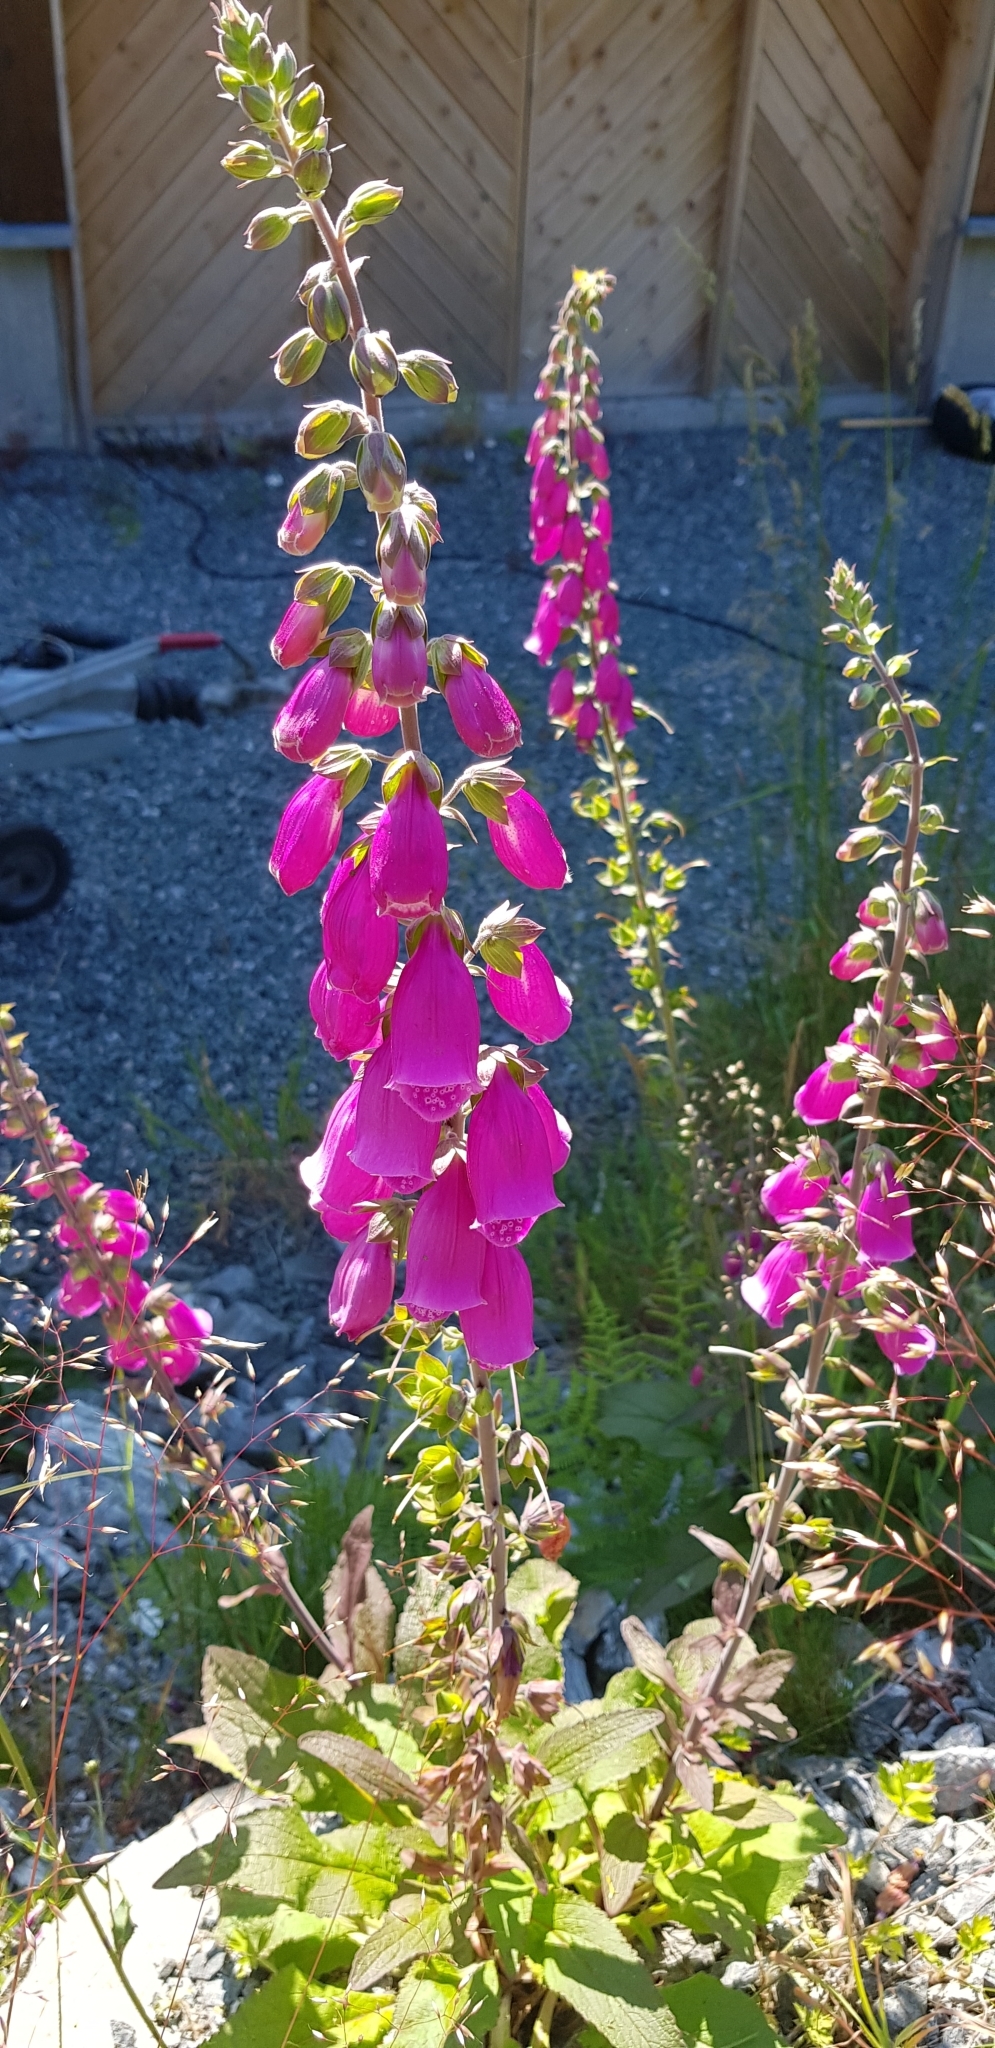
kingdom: Plantae
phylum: Tracheophyta
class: Magnoliopsida
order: Lamiales
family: Plantaginaceae
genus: Digitalis
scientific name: Digitalis purpurea
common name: Foxglove
